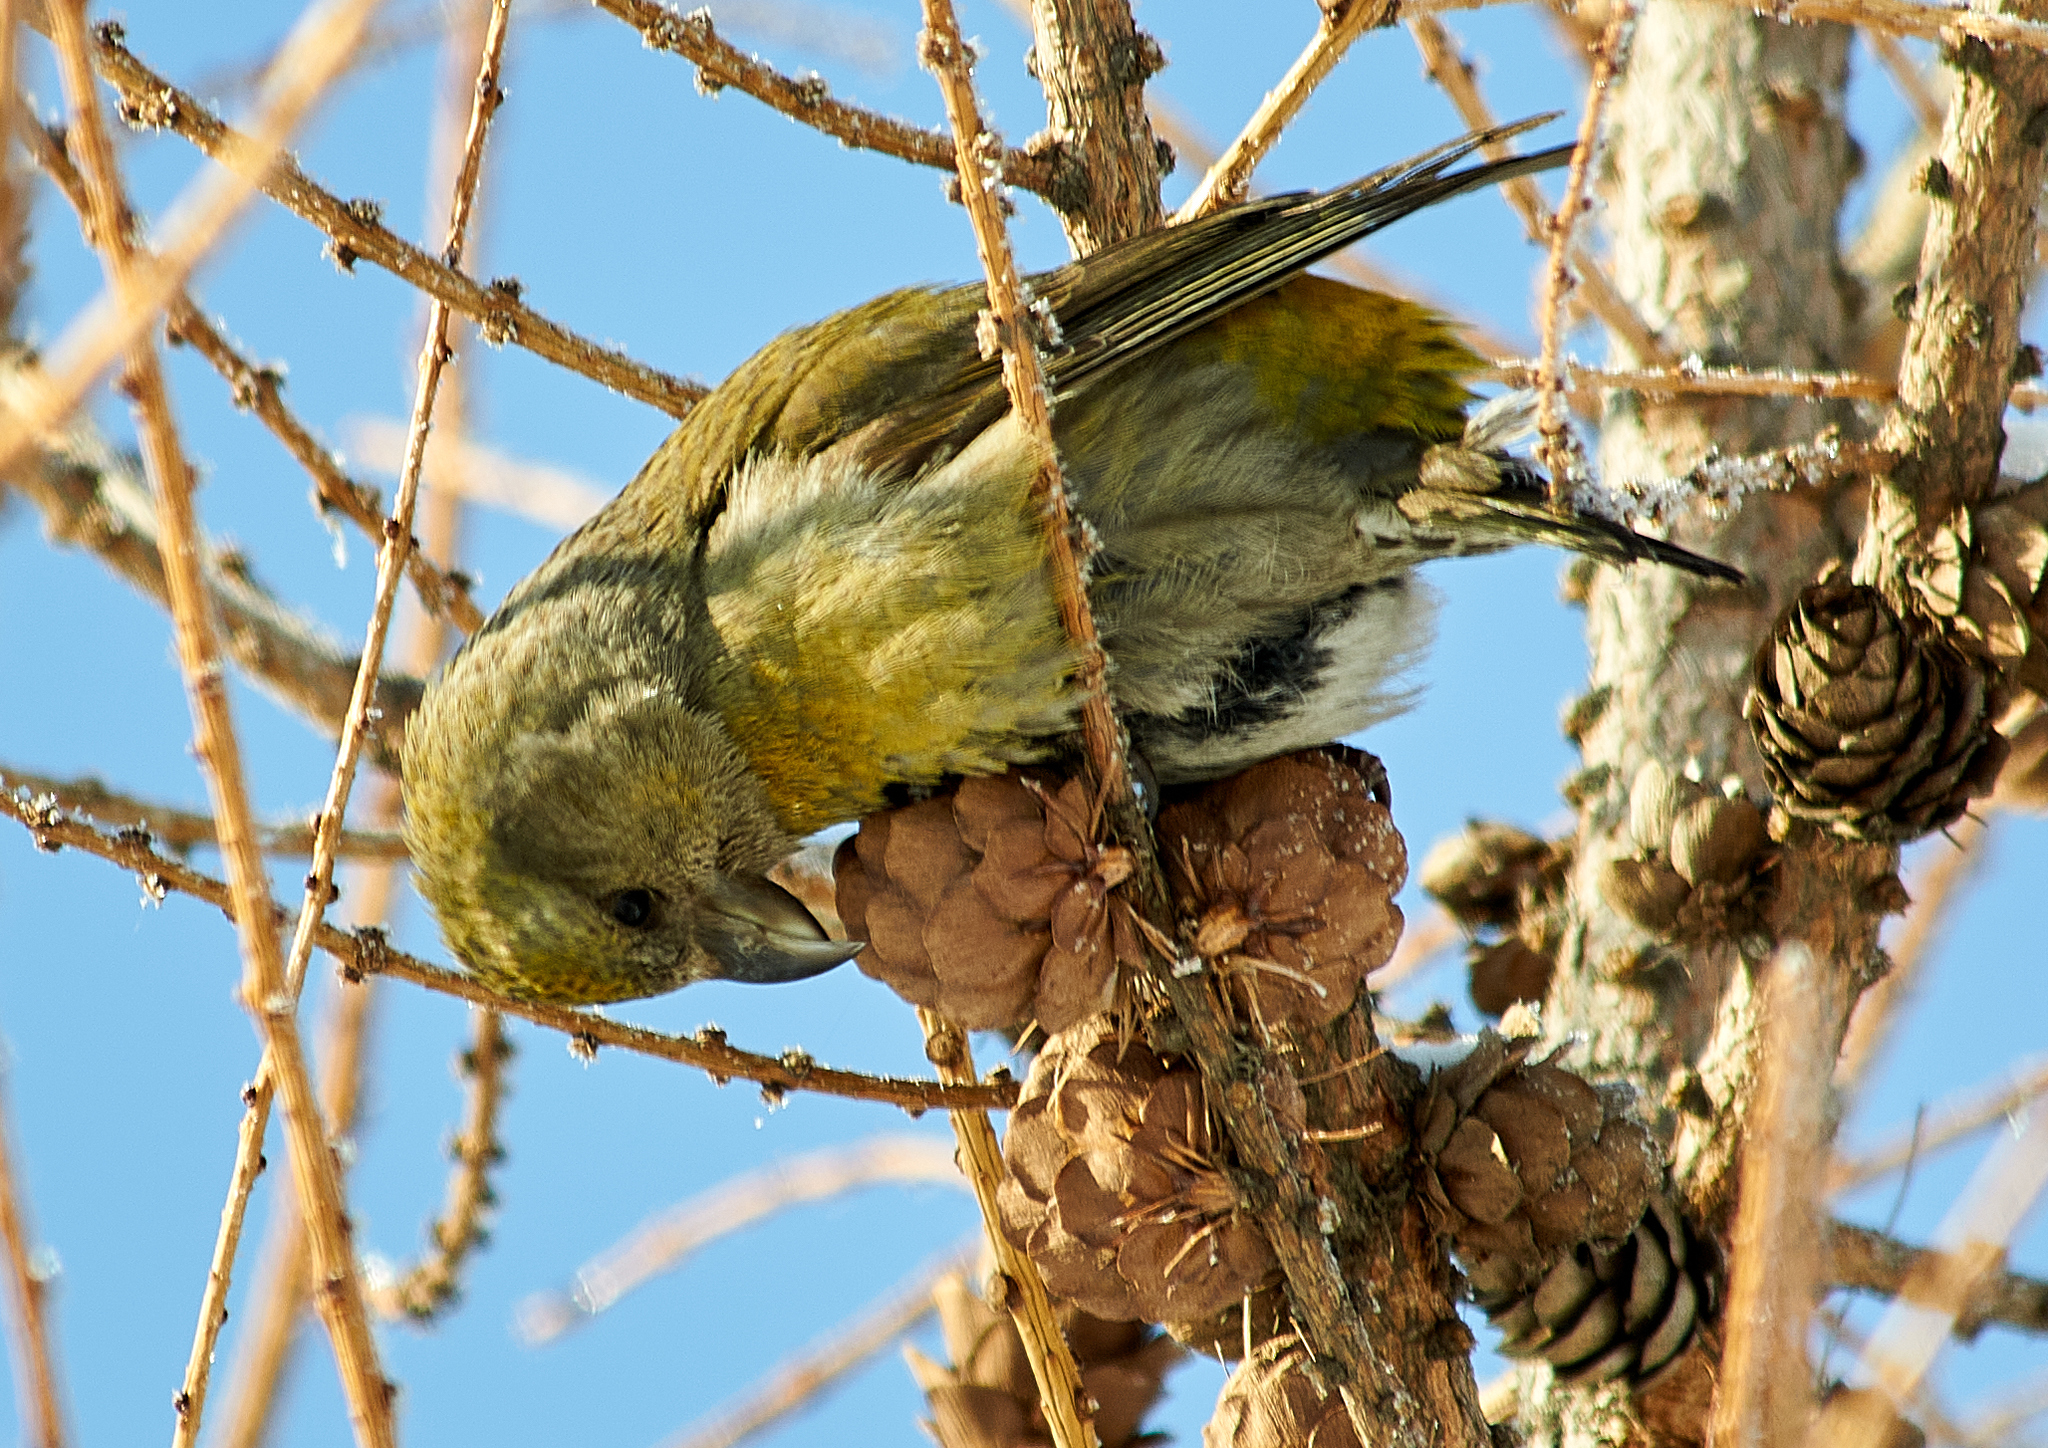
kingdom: Animalia
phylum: Chordata
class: Aves
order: Passeriformes
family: Fringillidae
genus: Loxia
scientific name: Loxia curvirostra
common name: Red crossbill
